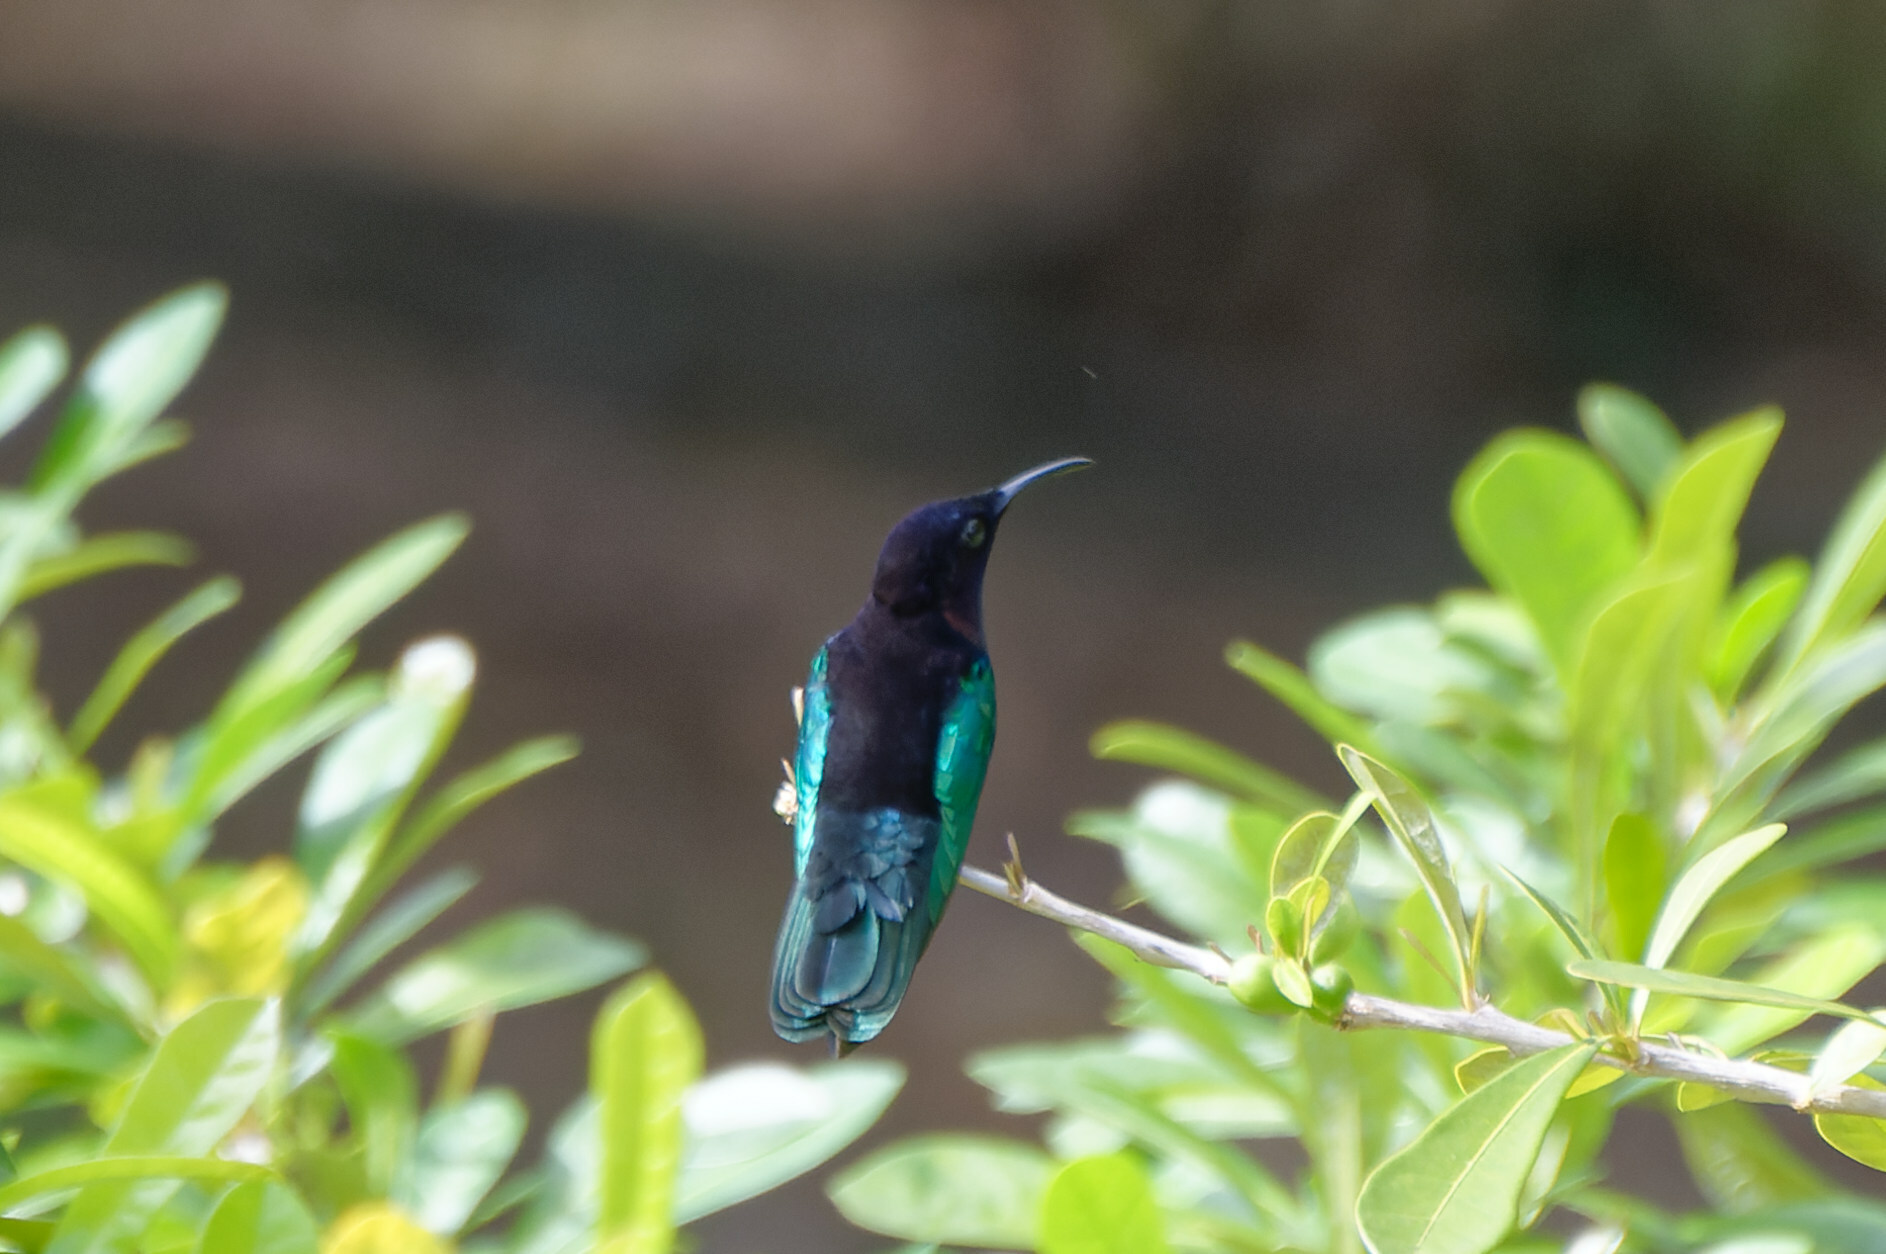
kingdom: Animalia
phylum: Chordata
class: Aves
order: Apodiformes
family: Trochilidae
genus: Eulampis
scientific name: Eulampis jugularis
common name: Purple-throated carib
